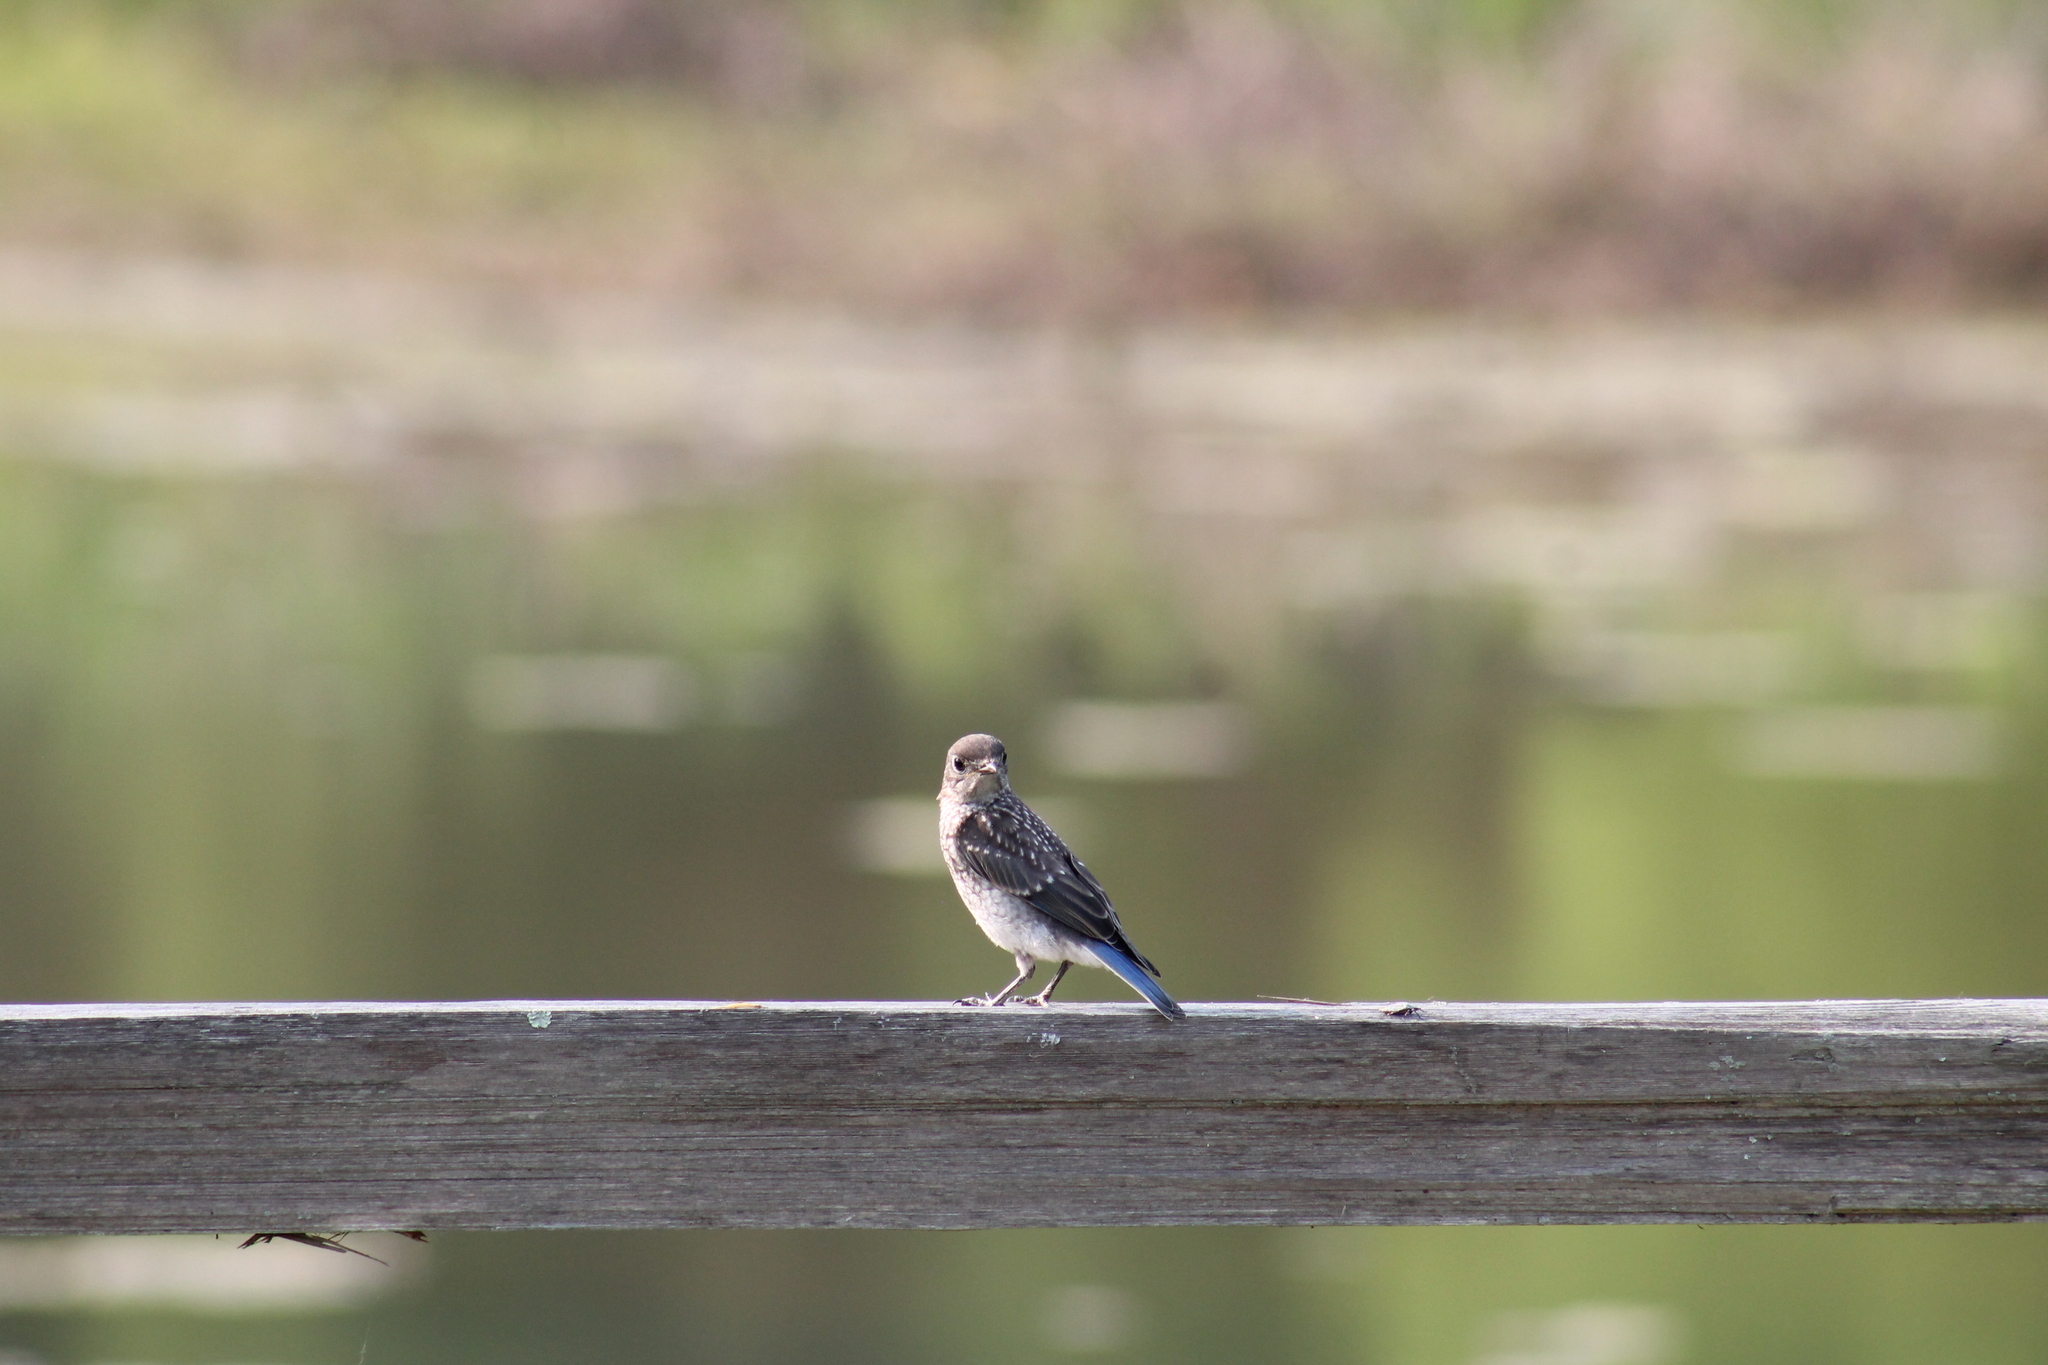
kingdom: Animalia
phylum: Chordata
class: Aves
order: Passeriformes
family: Turdidae
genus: Sialia
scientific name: Sialia sialis
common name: Eastern bluebird
